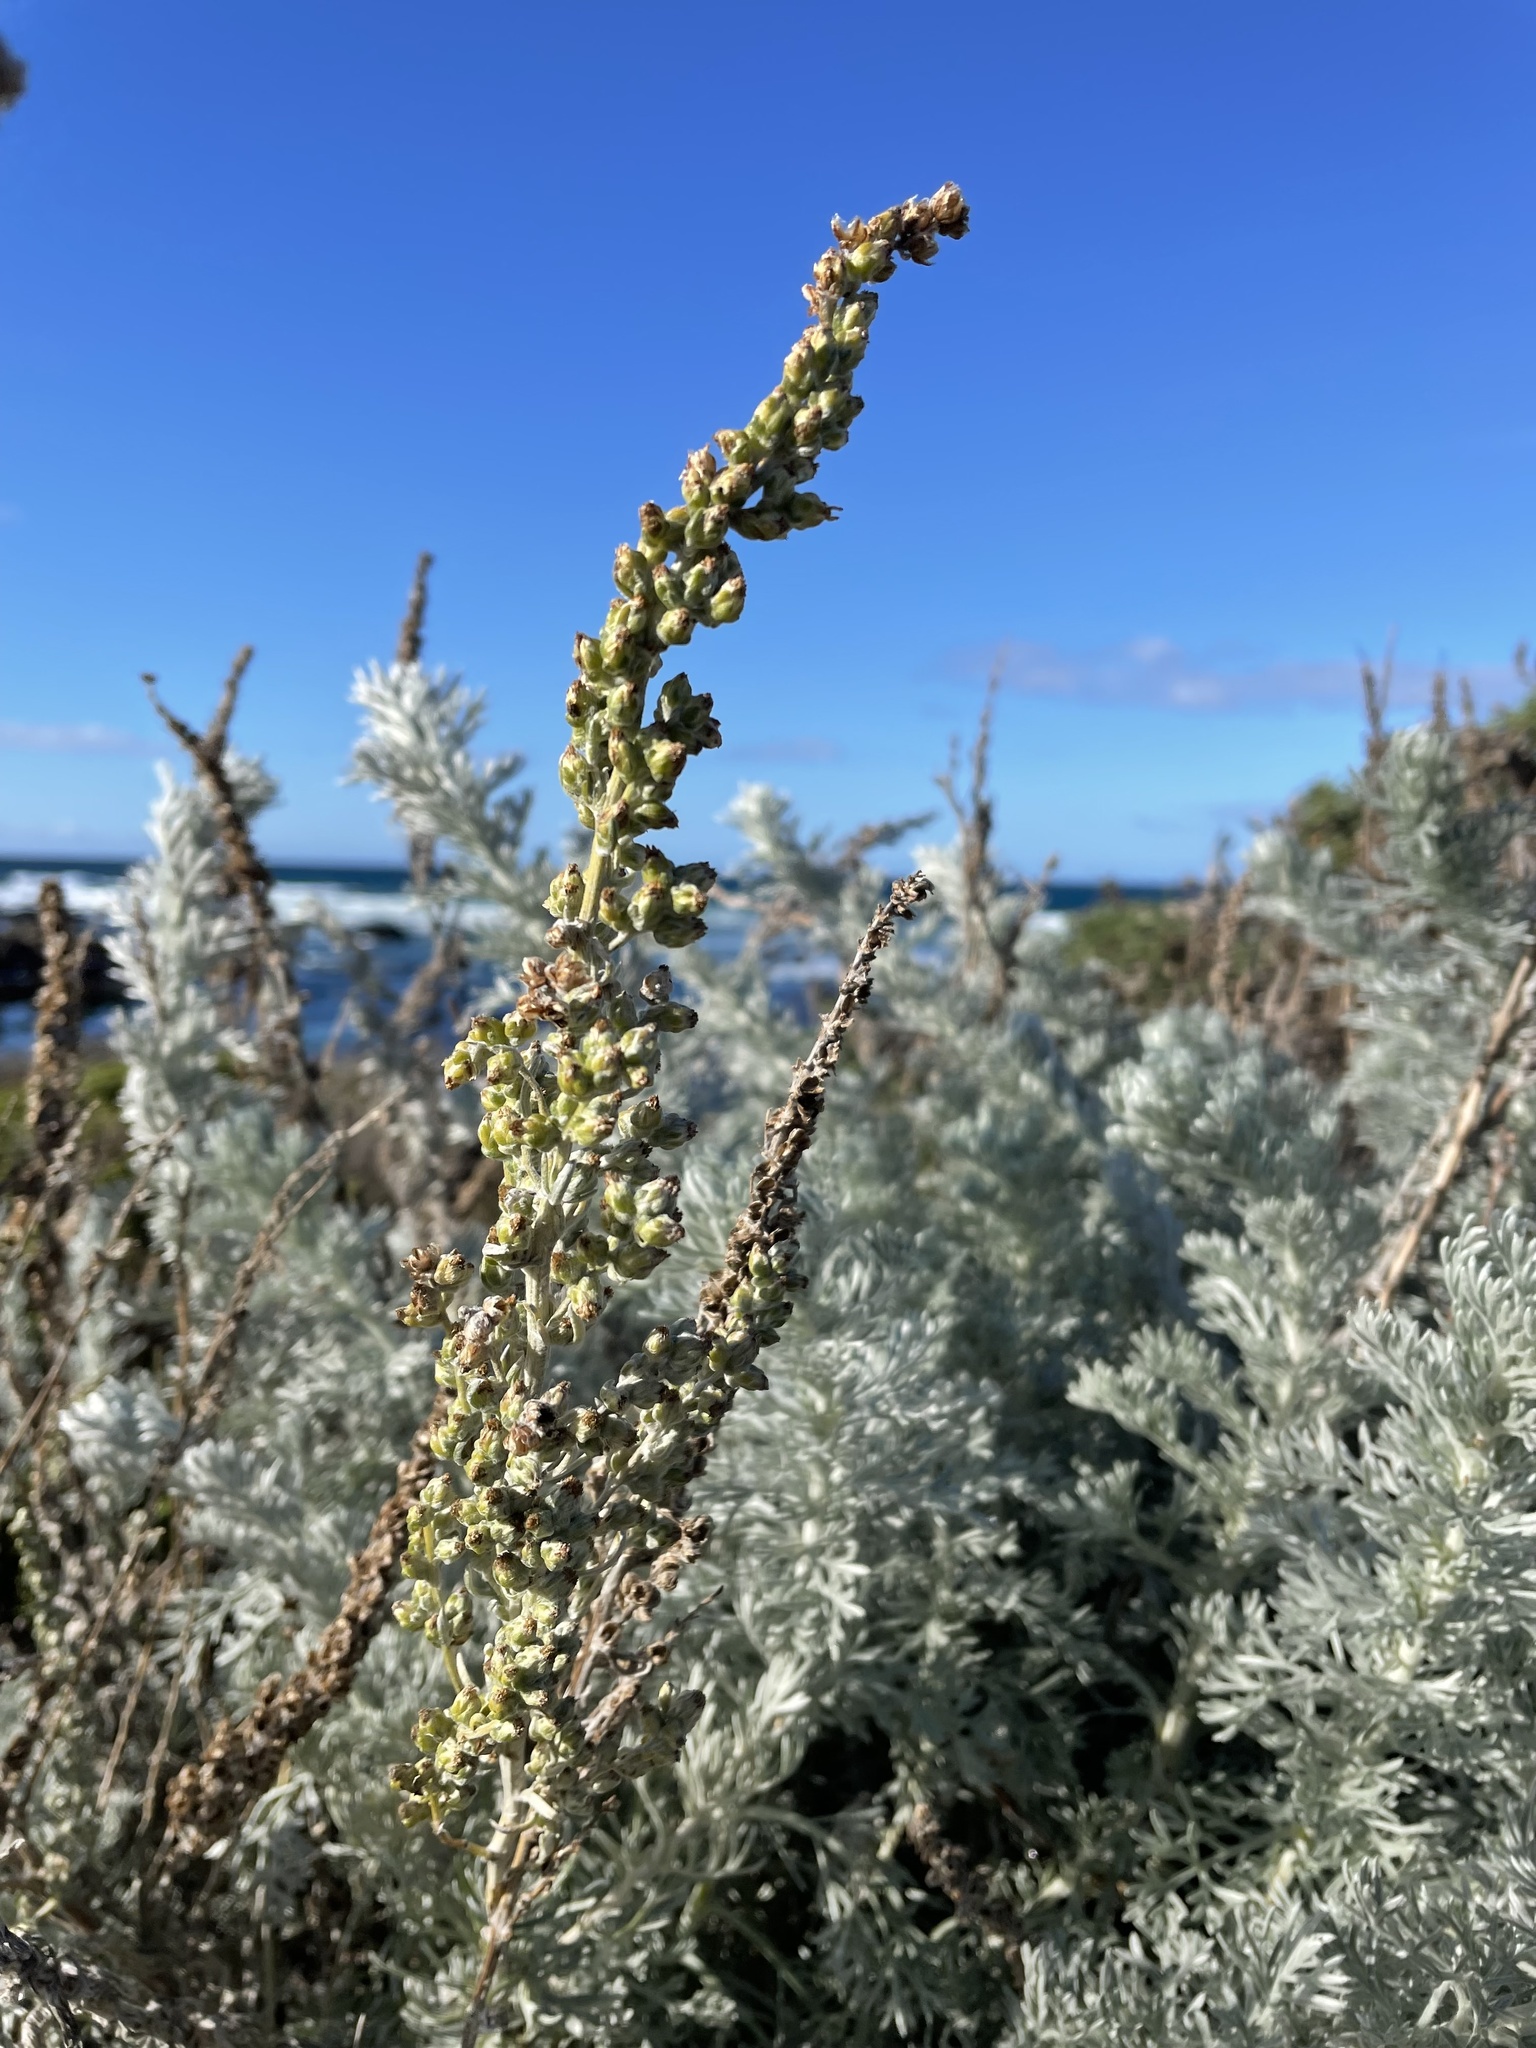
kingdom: Plantae
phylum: Tracheophyta
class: Magnoliopsida
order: Asterales
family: Asteraceae
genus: Artemisia
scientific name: Artemisia pycnocephala
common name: Coastal sagewort
